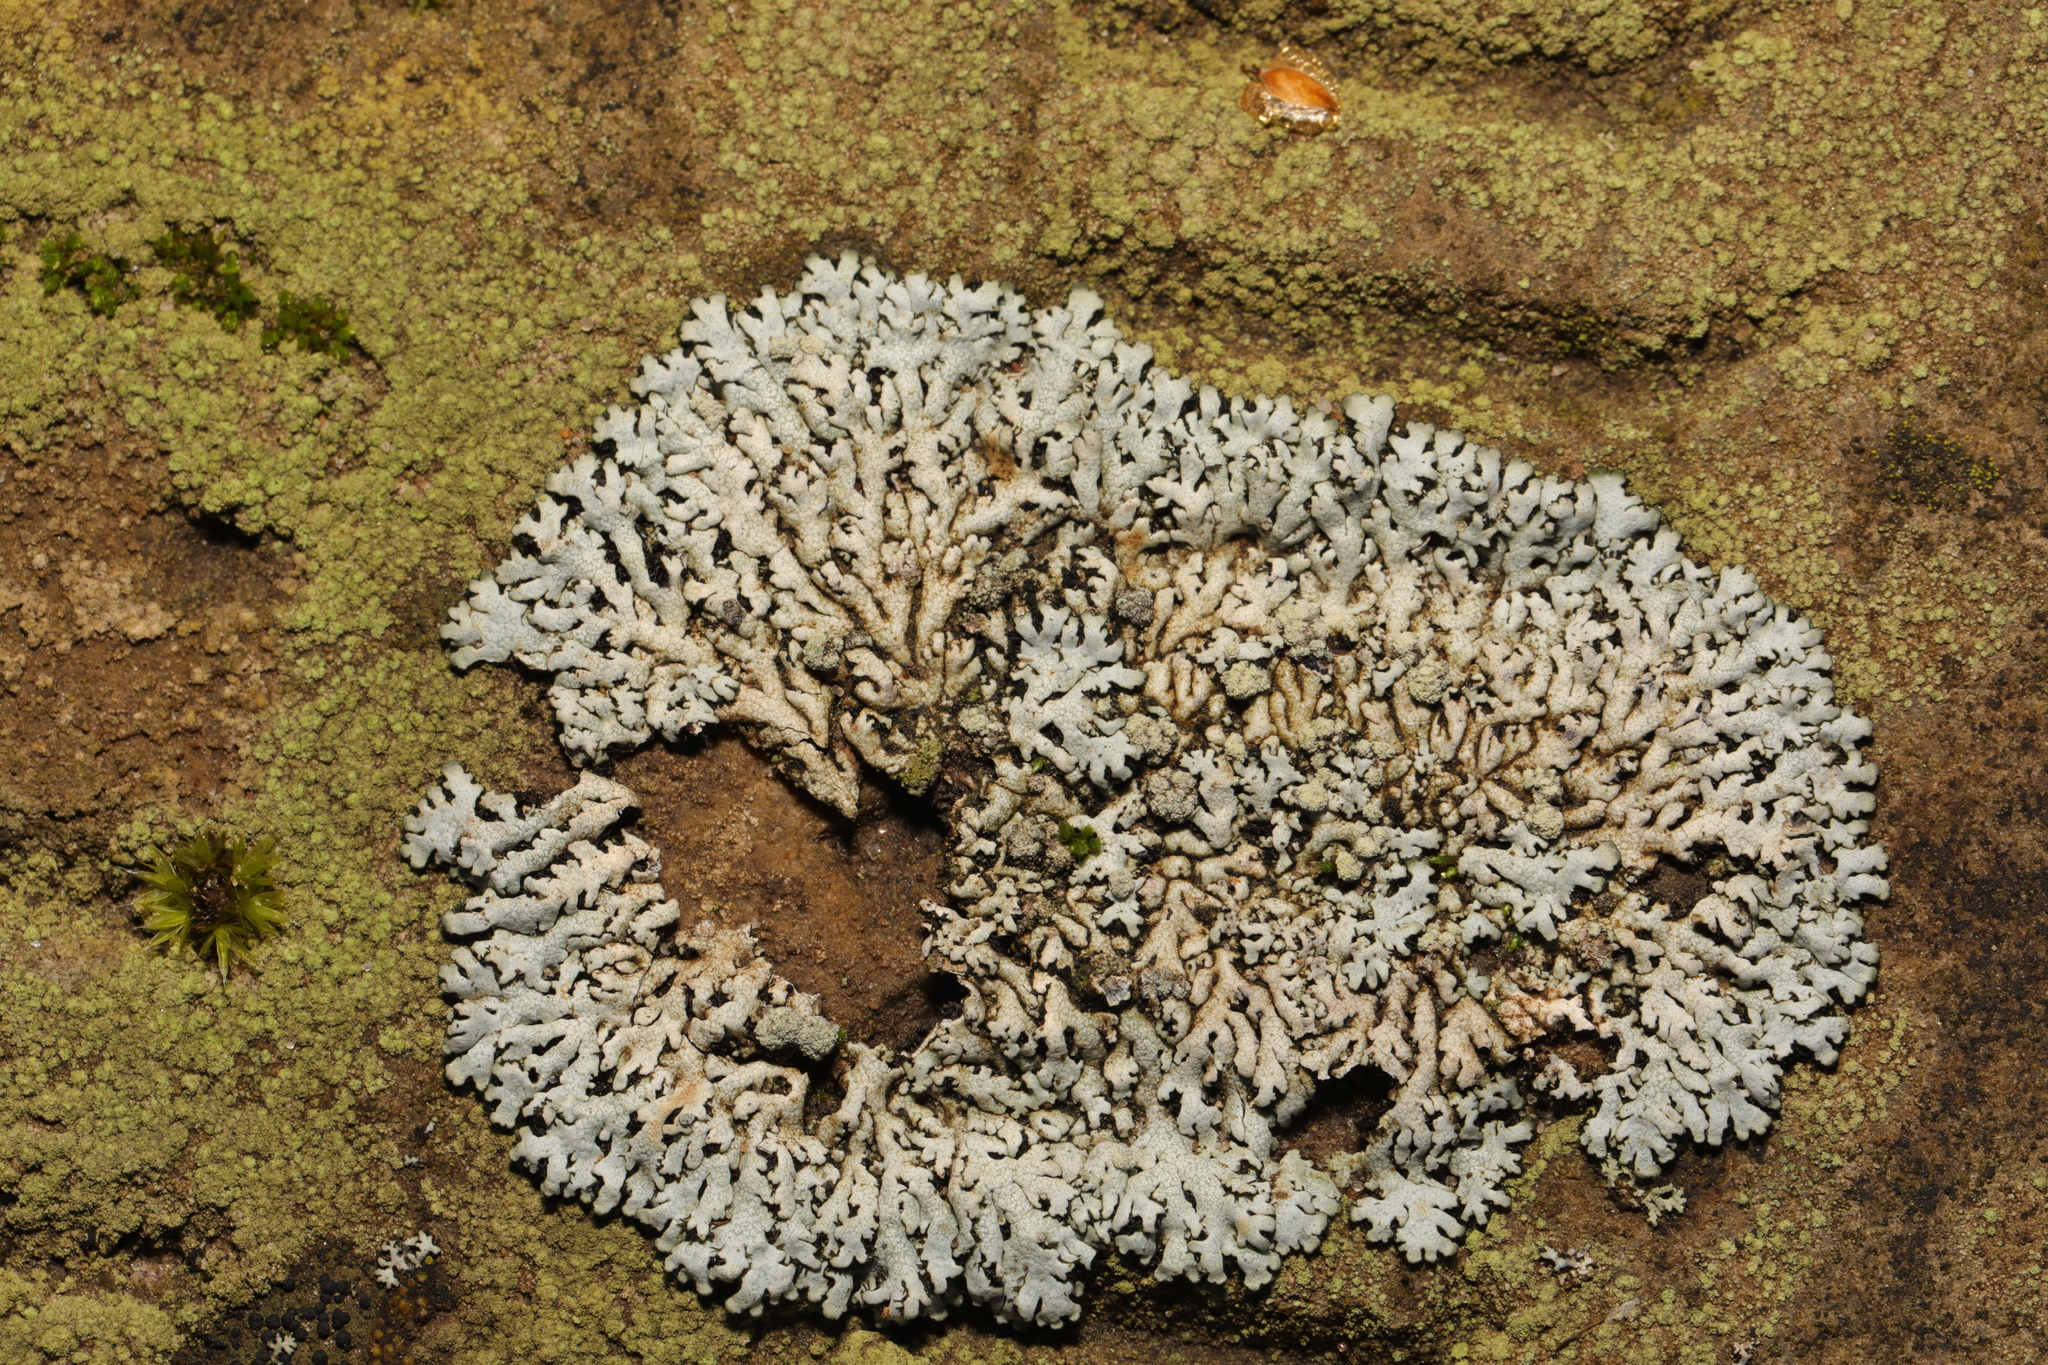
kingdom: Fungi
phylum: Ascomycota
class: Lecanoromycetes
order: Caliciales
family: Physciaceae
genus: Physcia
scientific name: Physcia caesia
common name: Blue-gray rosette lichen
